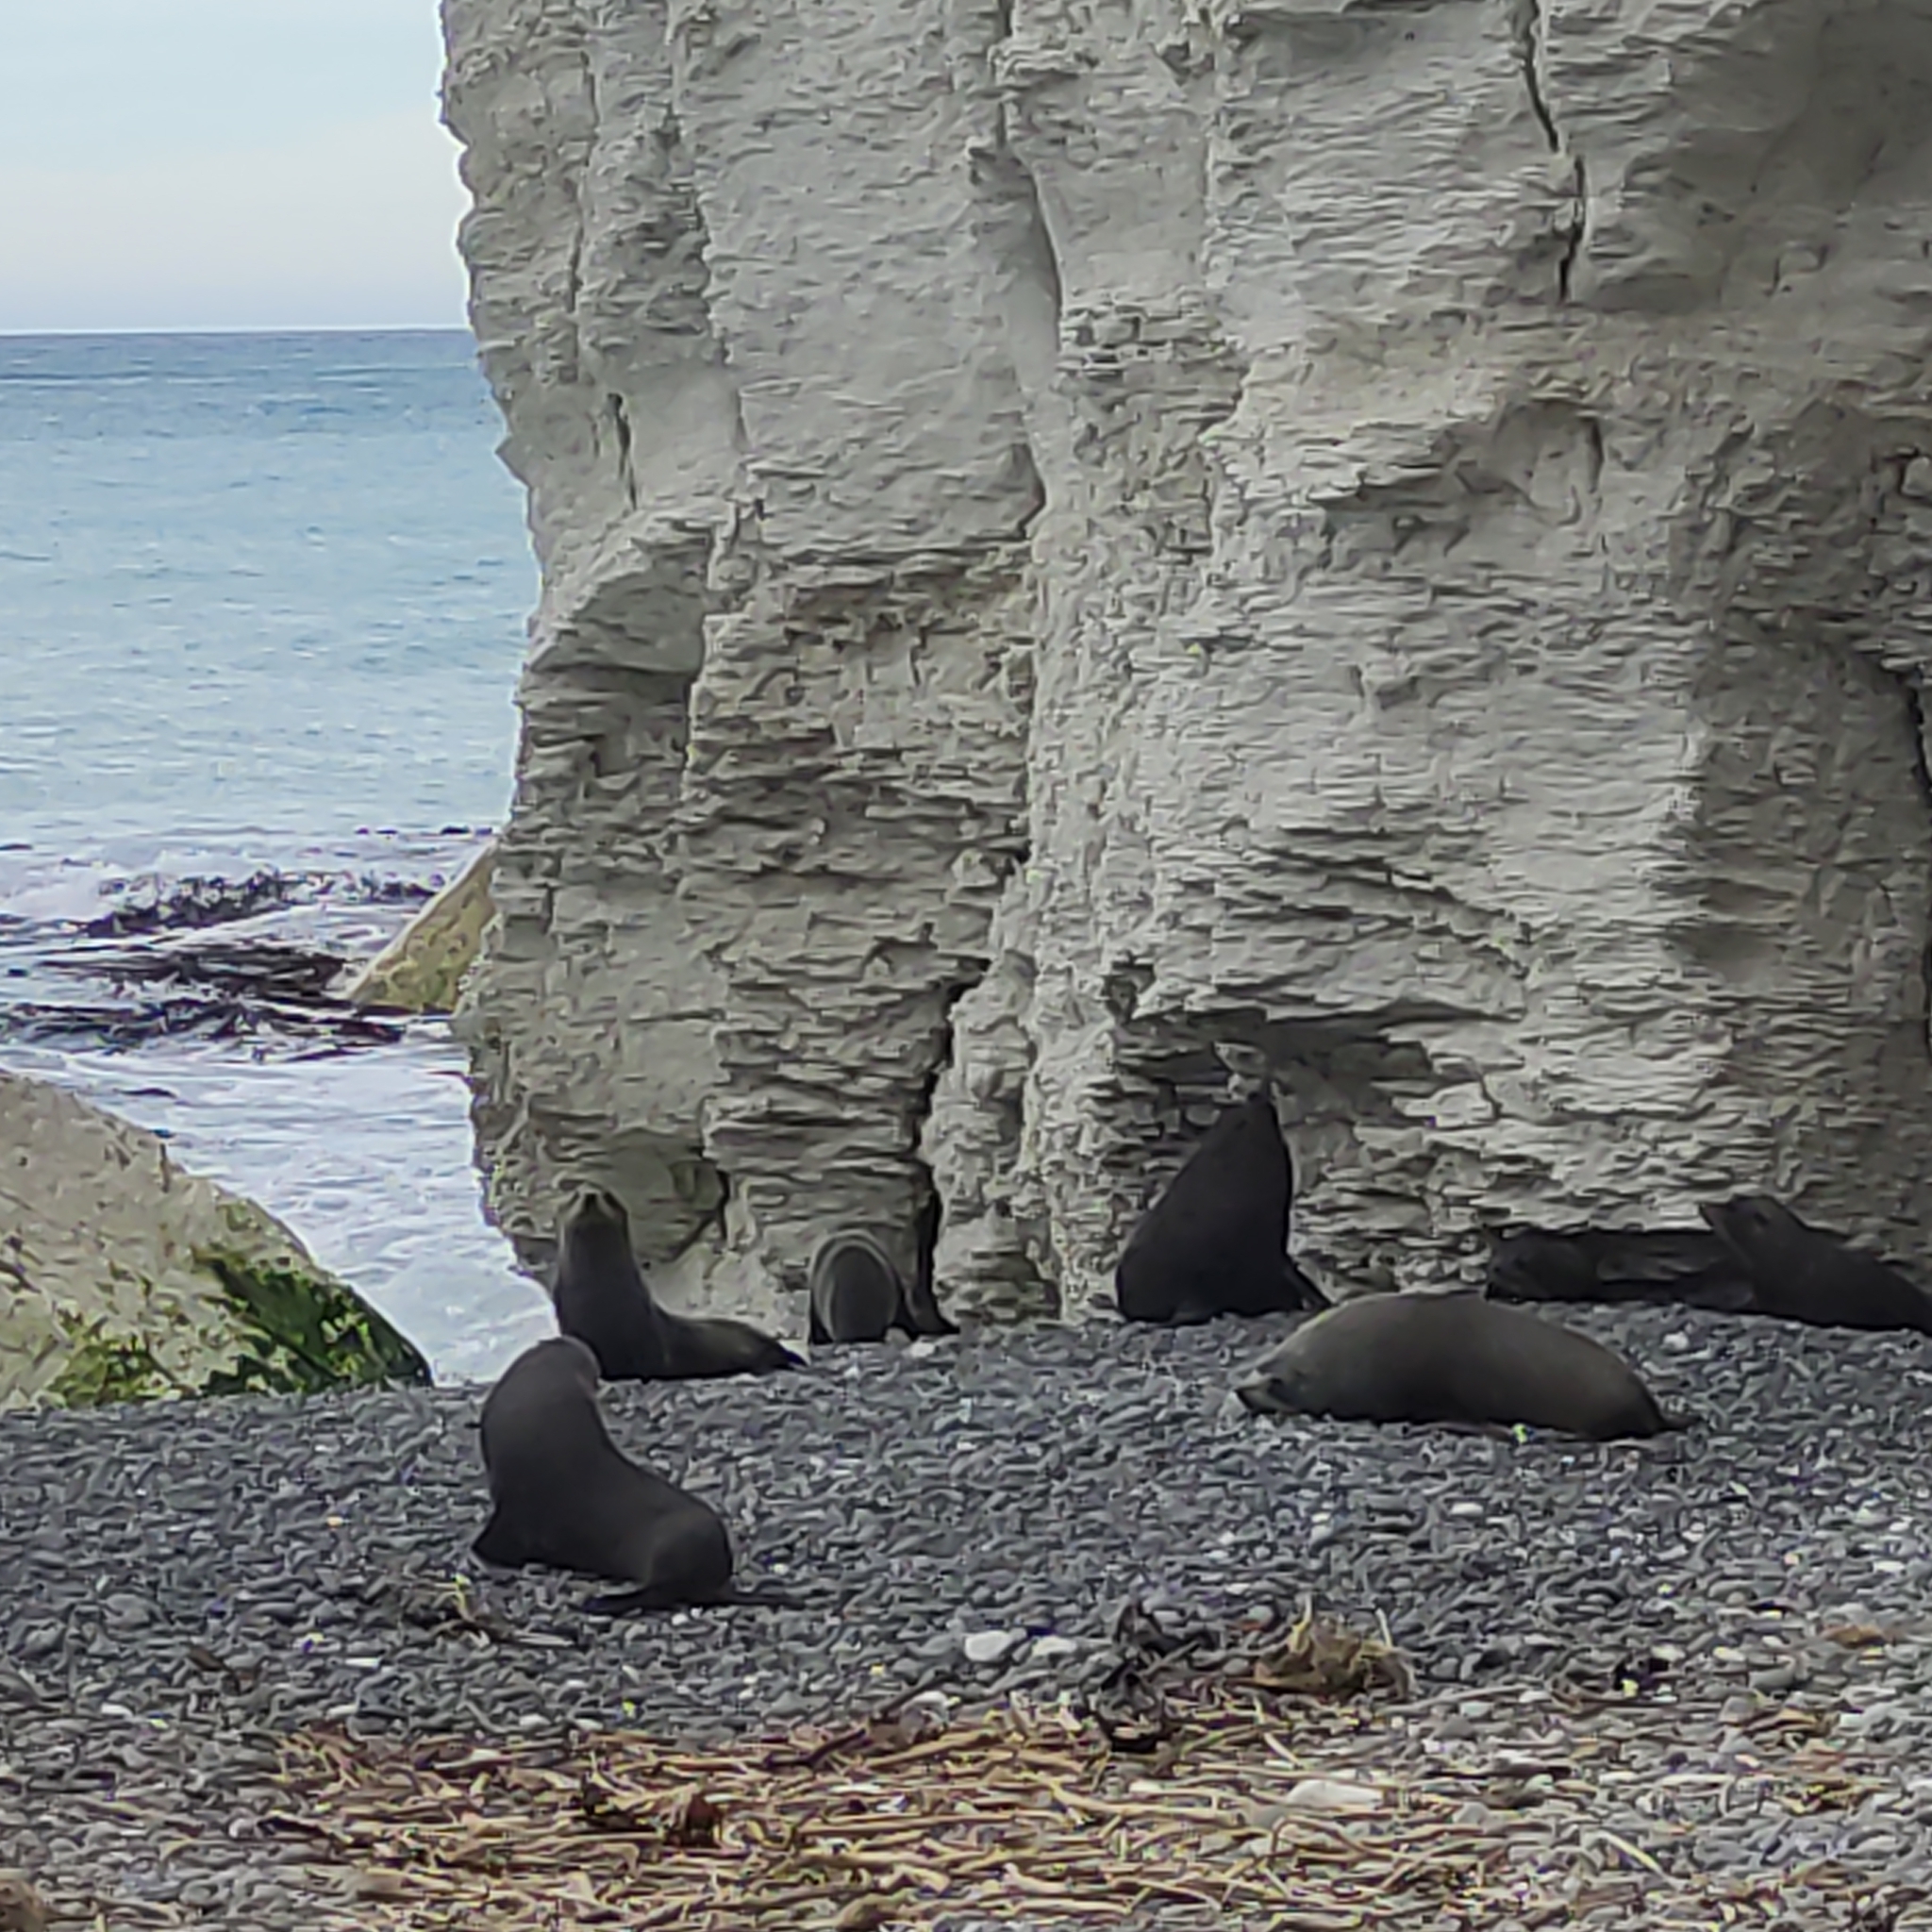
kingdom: Animalia
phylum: Chordata
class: Mammalia
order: Carnivora
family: Otariidae
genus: Arctocephalus
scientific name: Arctocephalus forsteri
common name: New zealand fur seal
